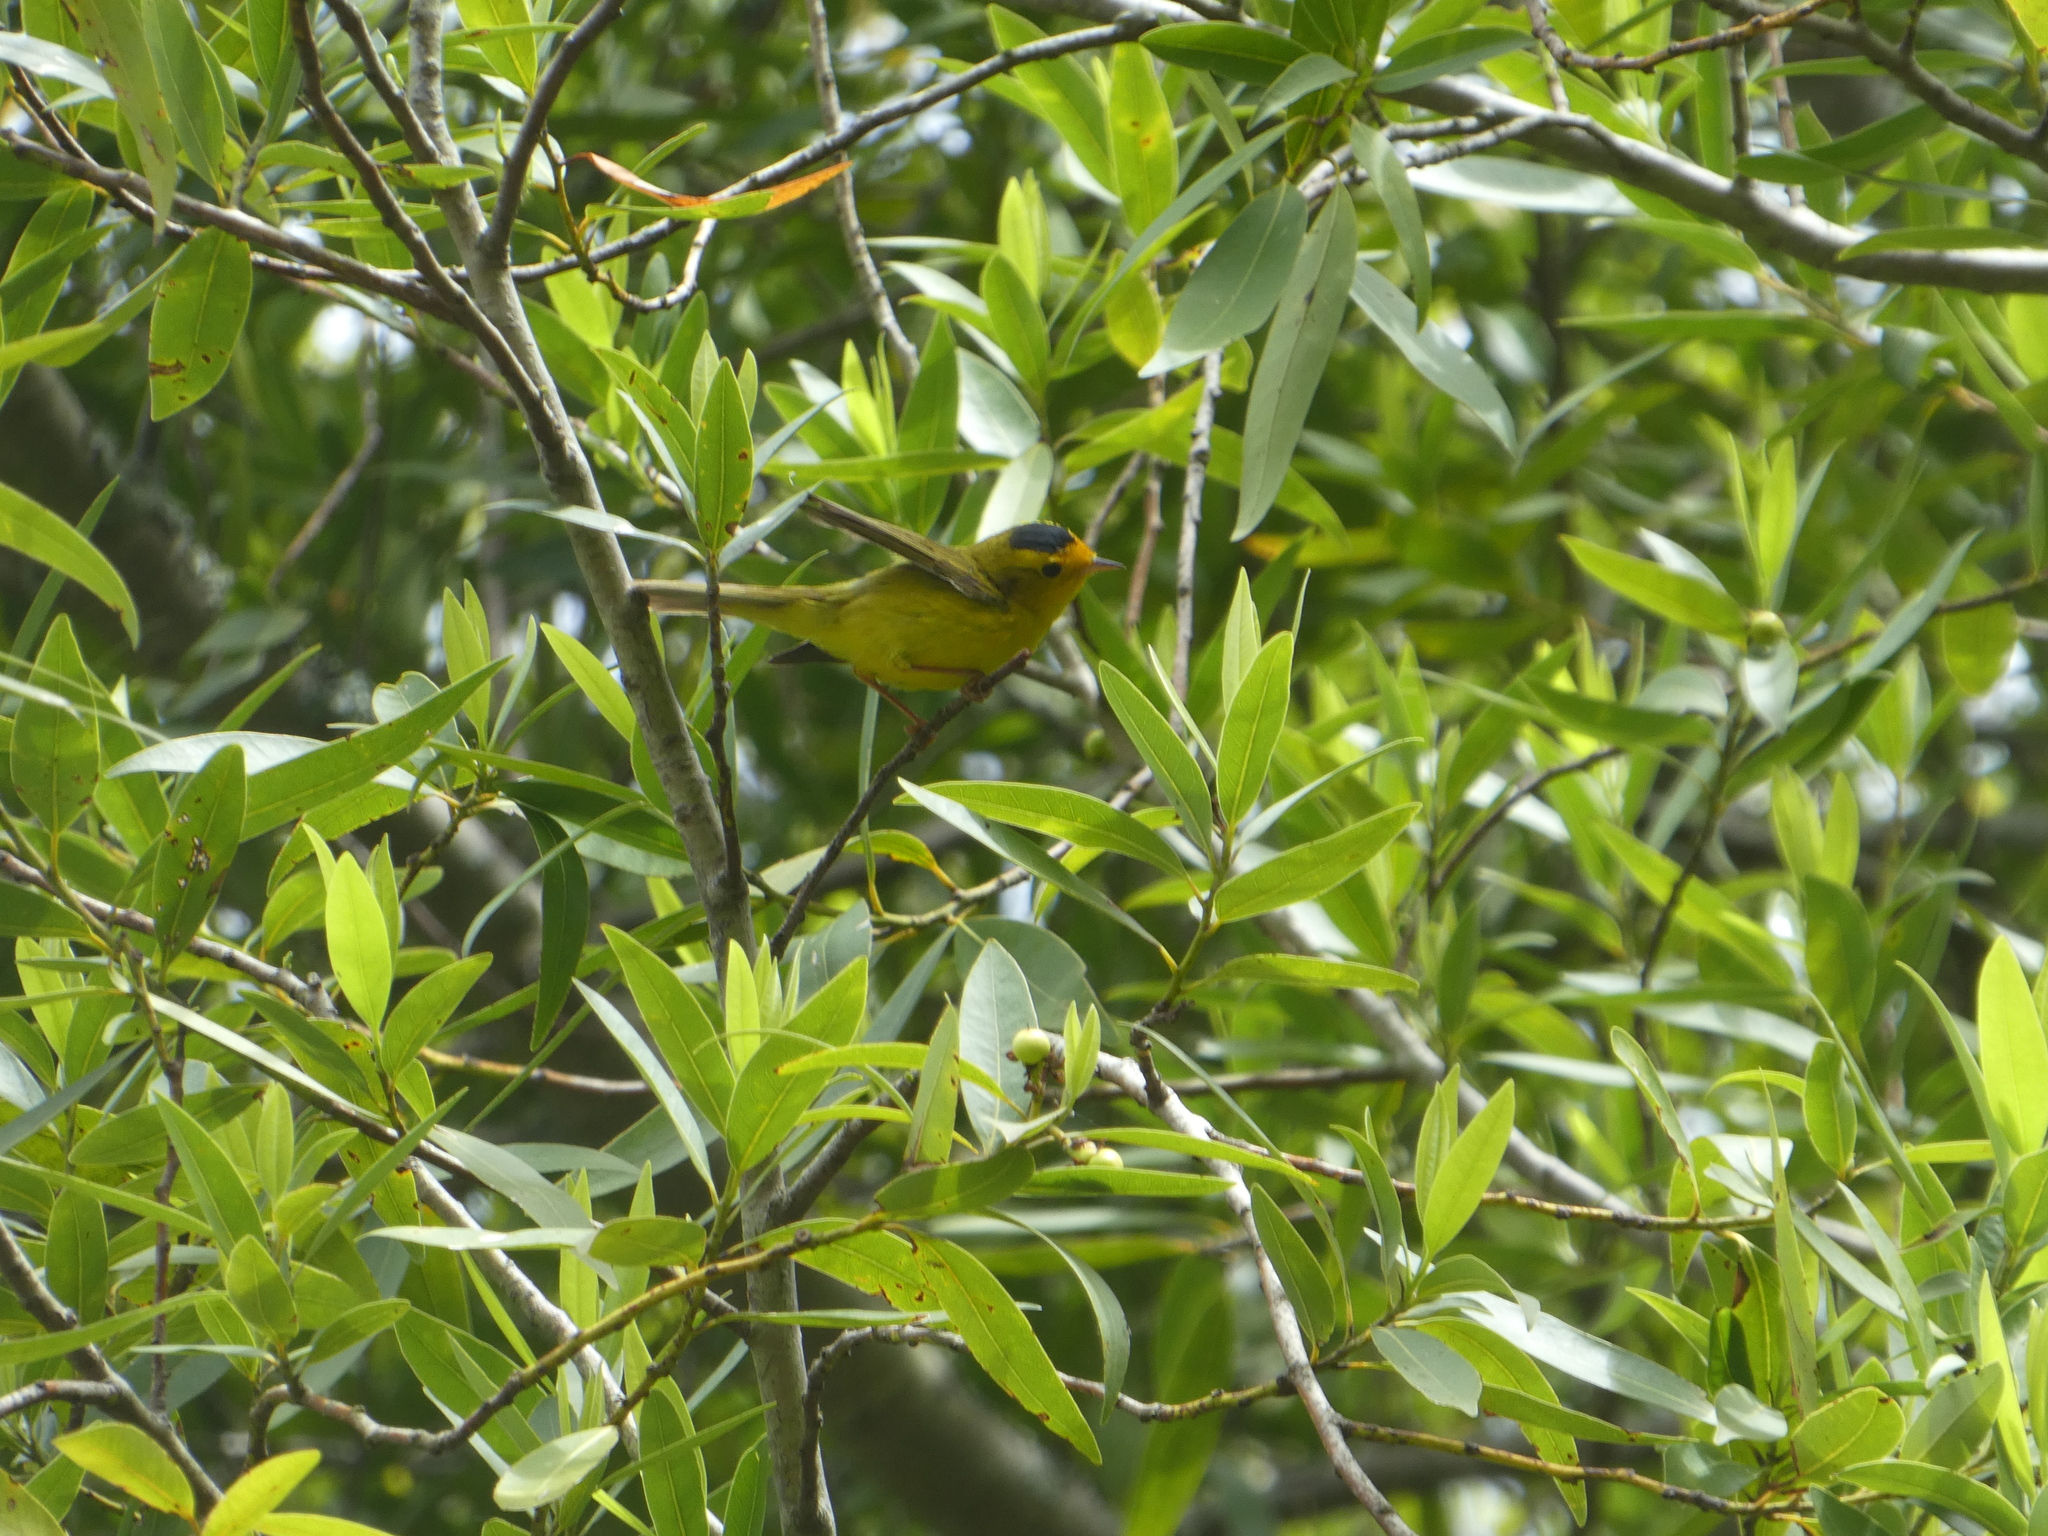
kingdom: Animalia
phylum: Chordata
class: Aves
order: Passeriformes
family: Parulidae
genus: Cardellina
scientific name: Cardellina pusilla
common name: Wilson's warbler
